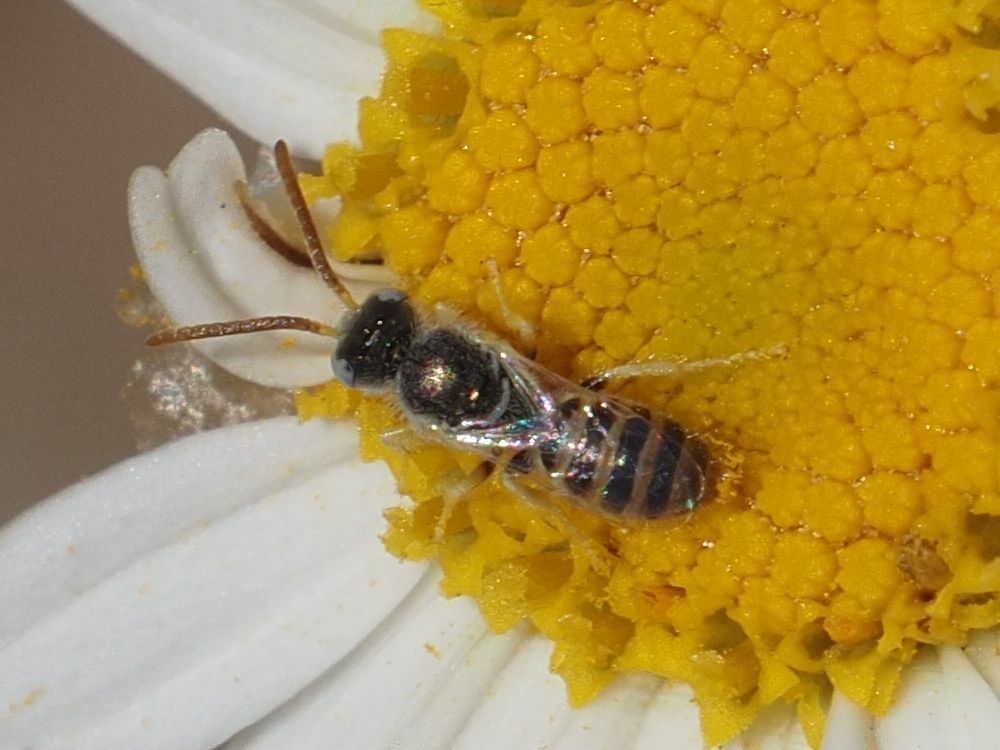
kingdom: Animalia
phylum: Arthropoda
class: Insecta
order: Hymenoptera
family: Halictidae
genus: Nomioides
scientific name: Nomioides deceptor
